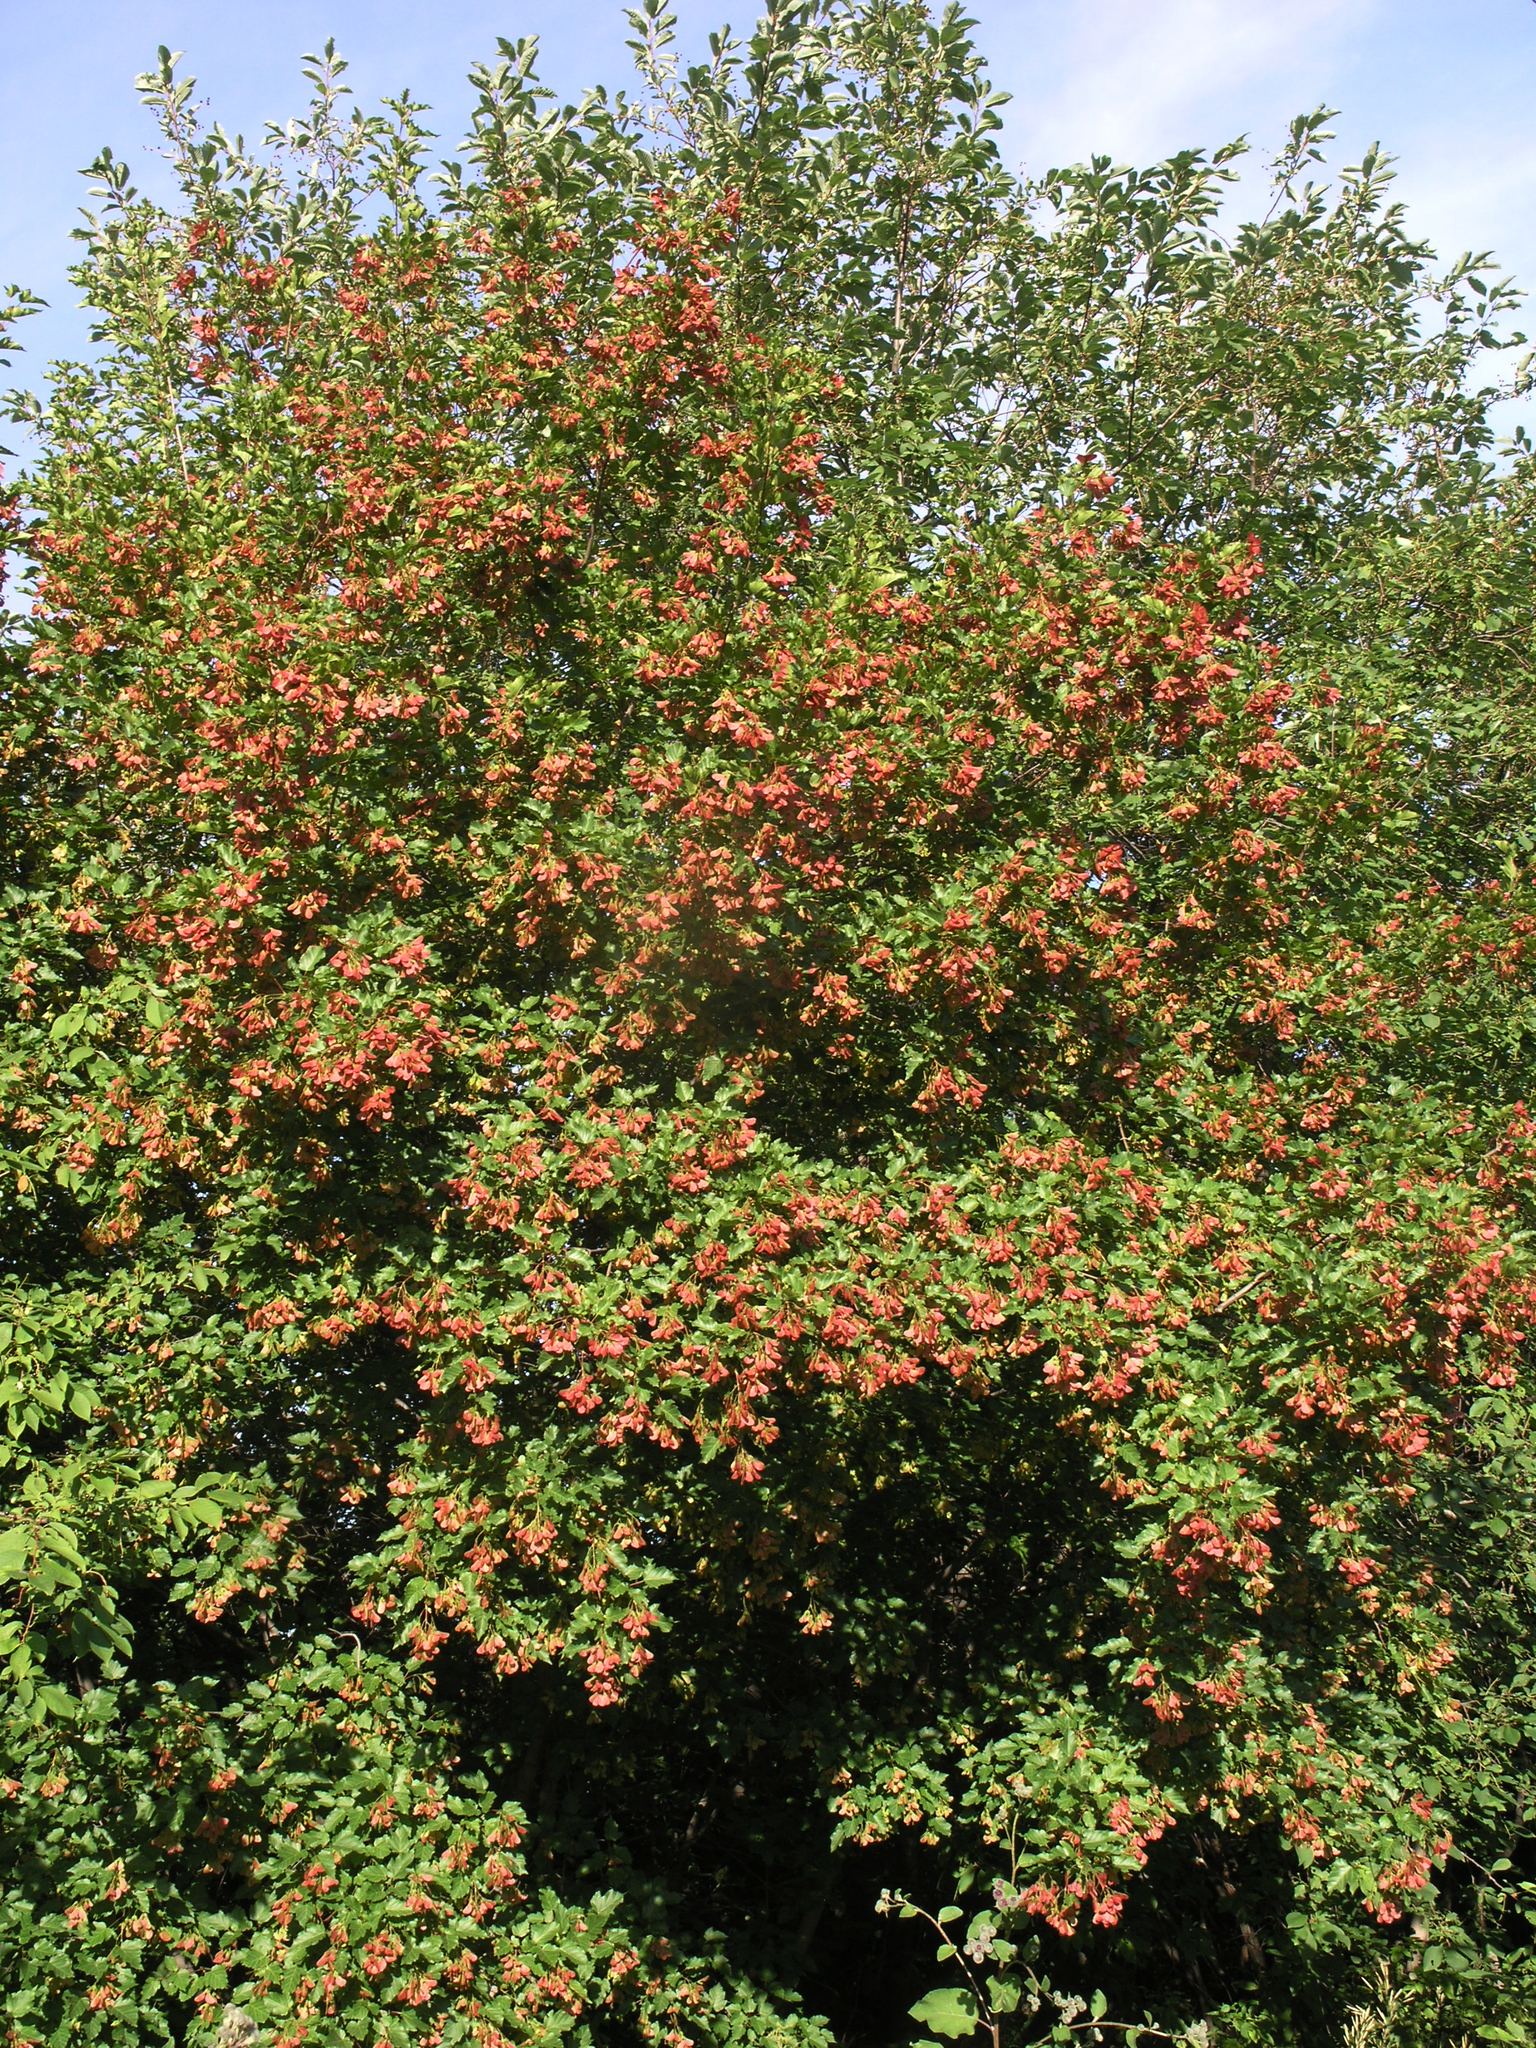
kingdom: Plantae
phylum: Tracheophyta
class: Magnoliopsida
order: Sapindales
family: Sapindaceae
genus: Acer
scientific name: Acer tataricum
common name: Tartar maple
